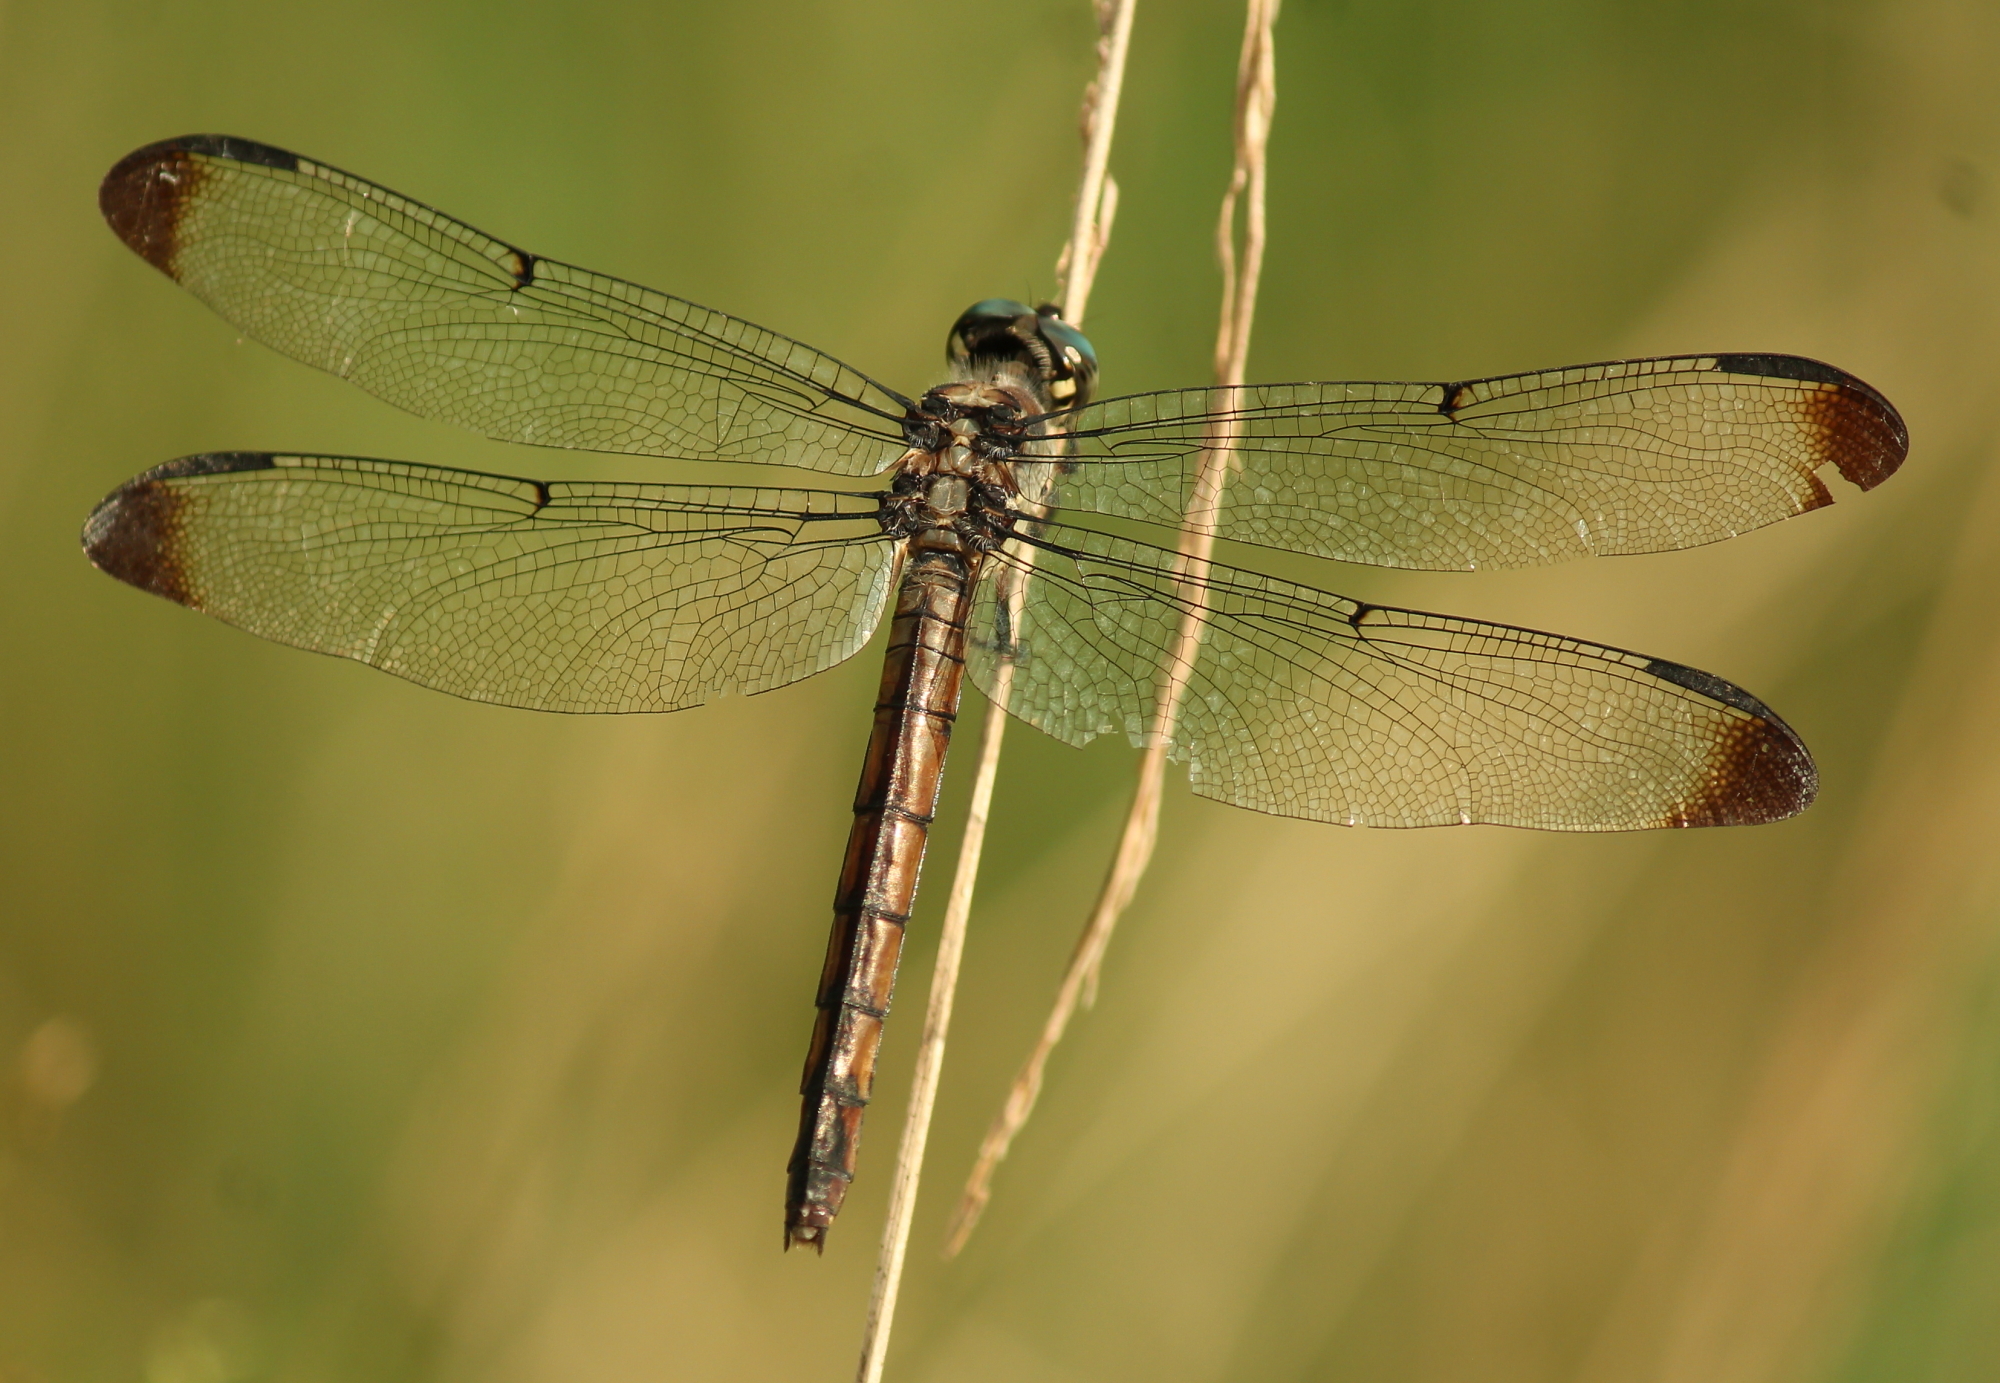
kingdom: Animalia
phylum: Arthropoda
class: Insecta
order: Odonata
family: Libellulidae
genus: Libellula
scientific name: Libellula vibrans
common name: Great blue skimmer
